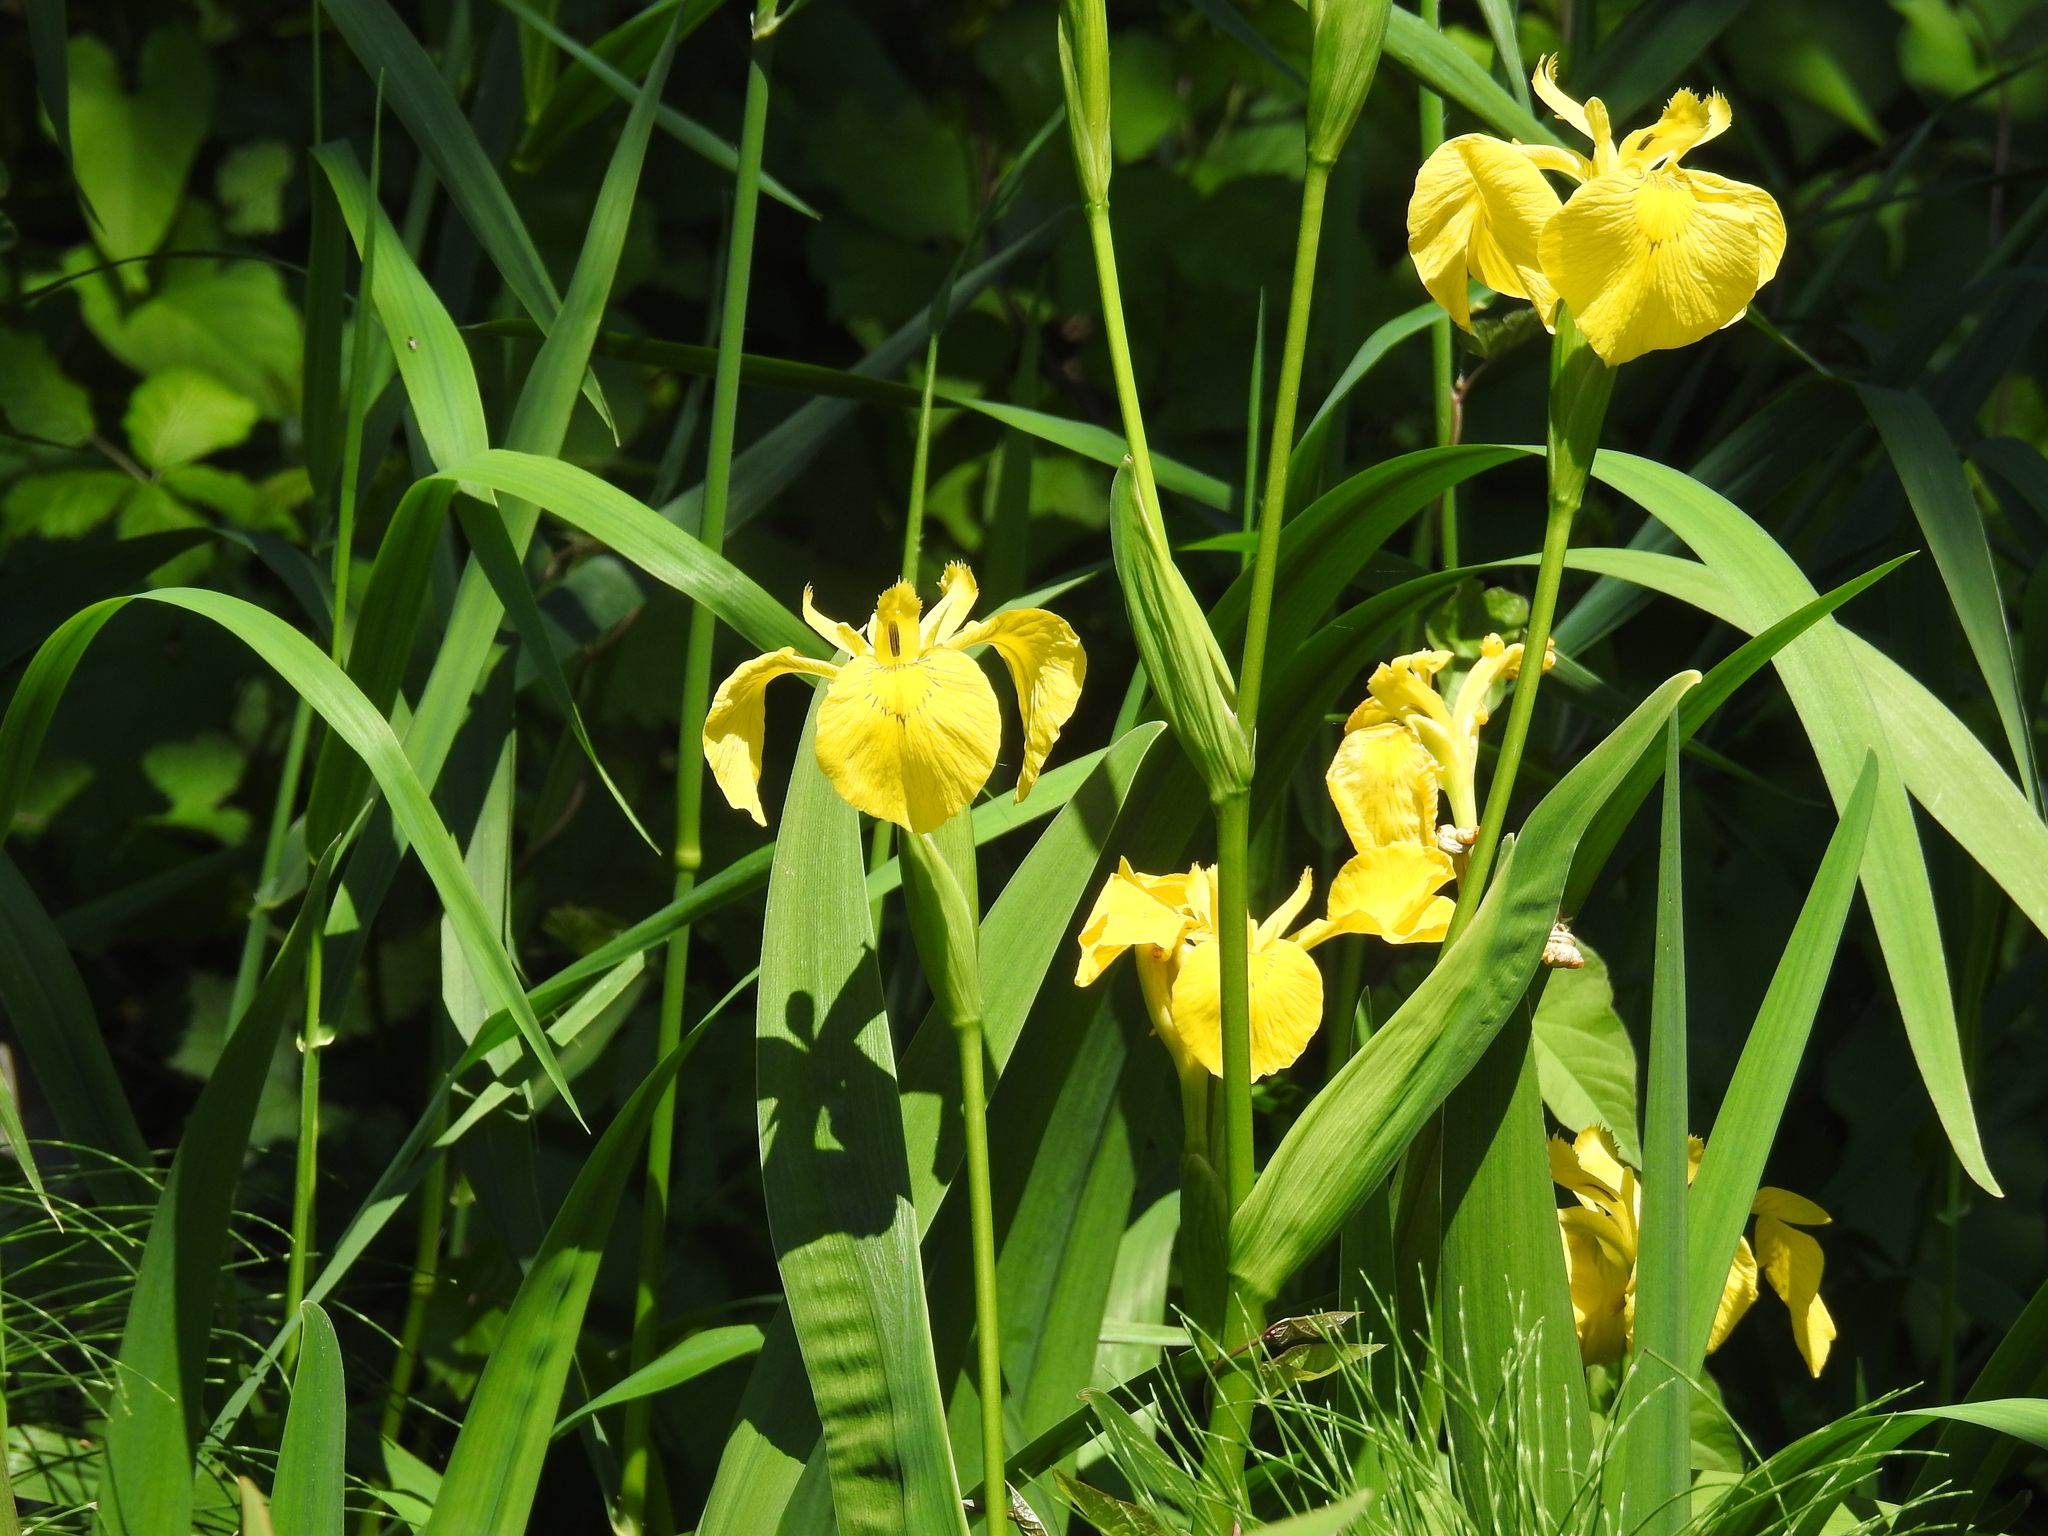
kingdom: Plantae
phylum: Tracheophyta
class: Liliopsida
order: Asparagales
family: Iridaceae
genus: Iris
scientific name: Iris pseudacorus
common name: Yellow flag
